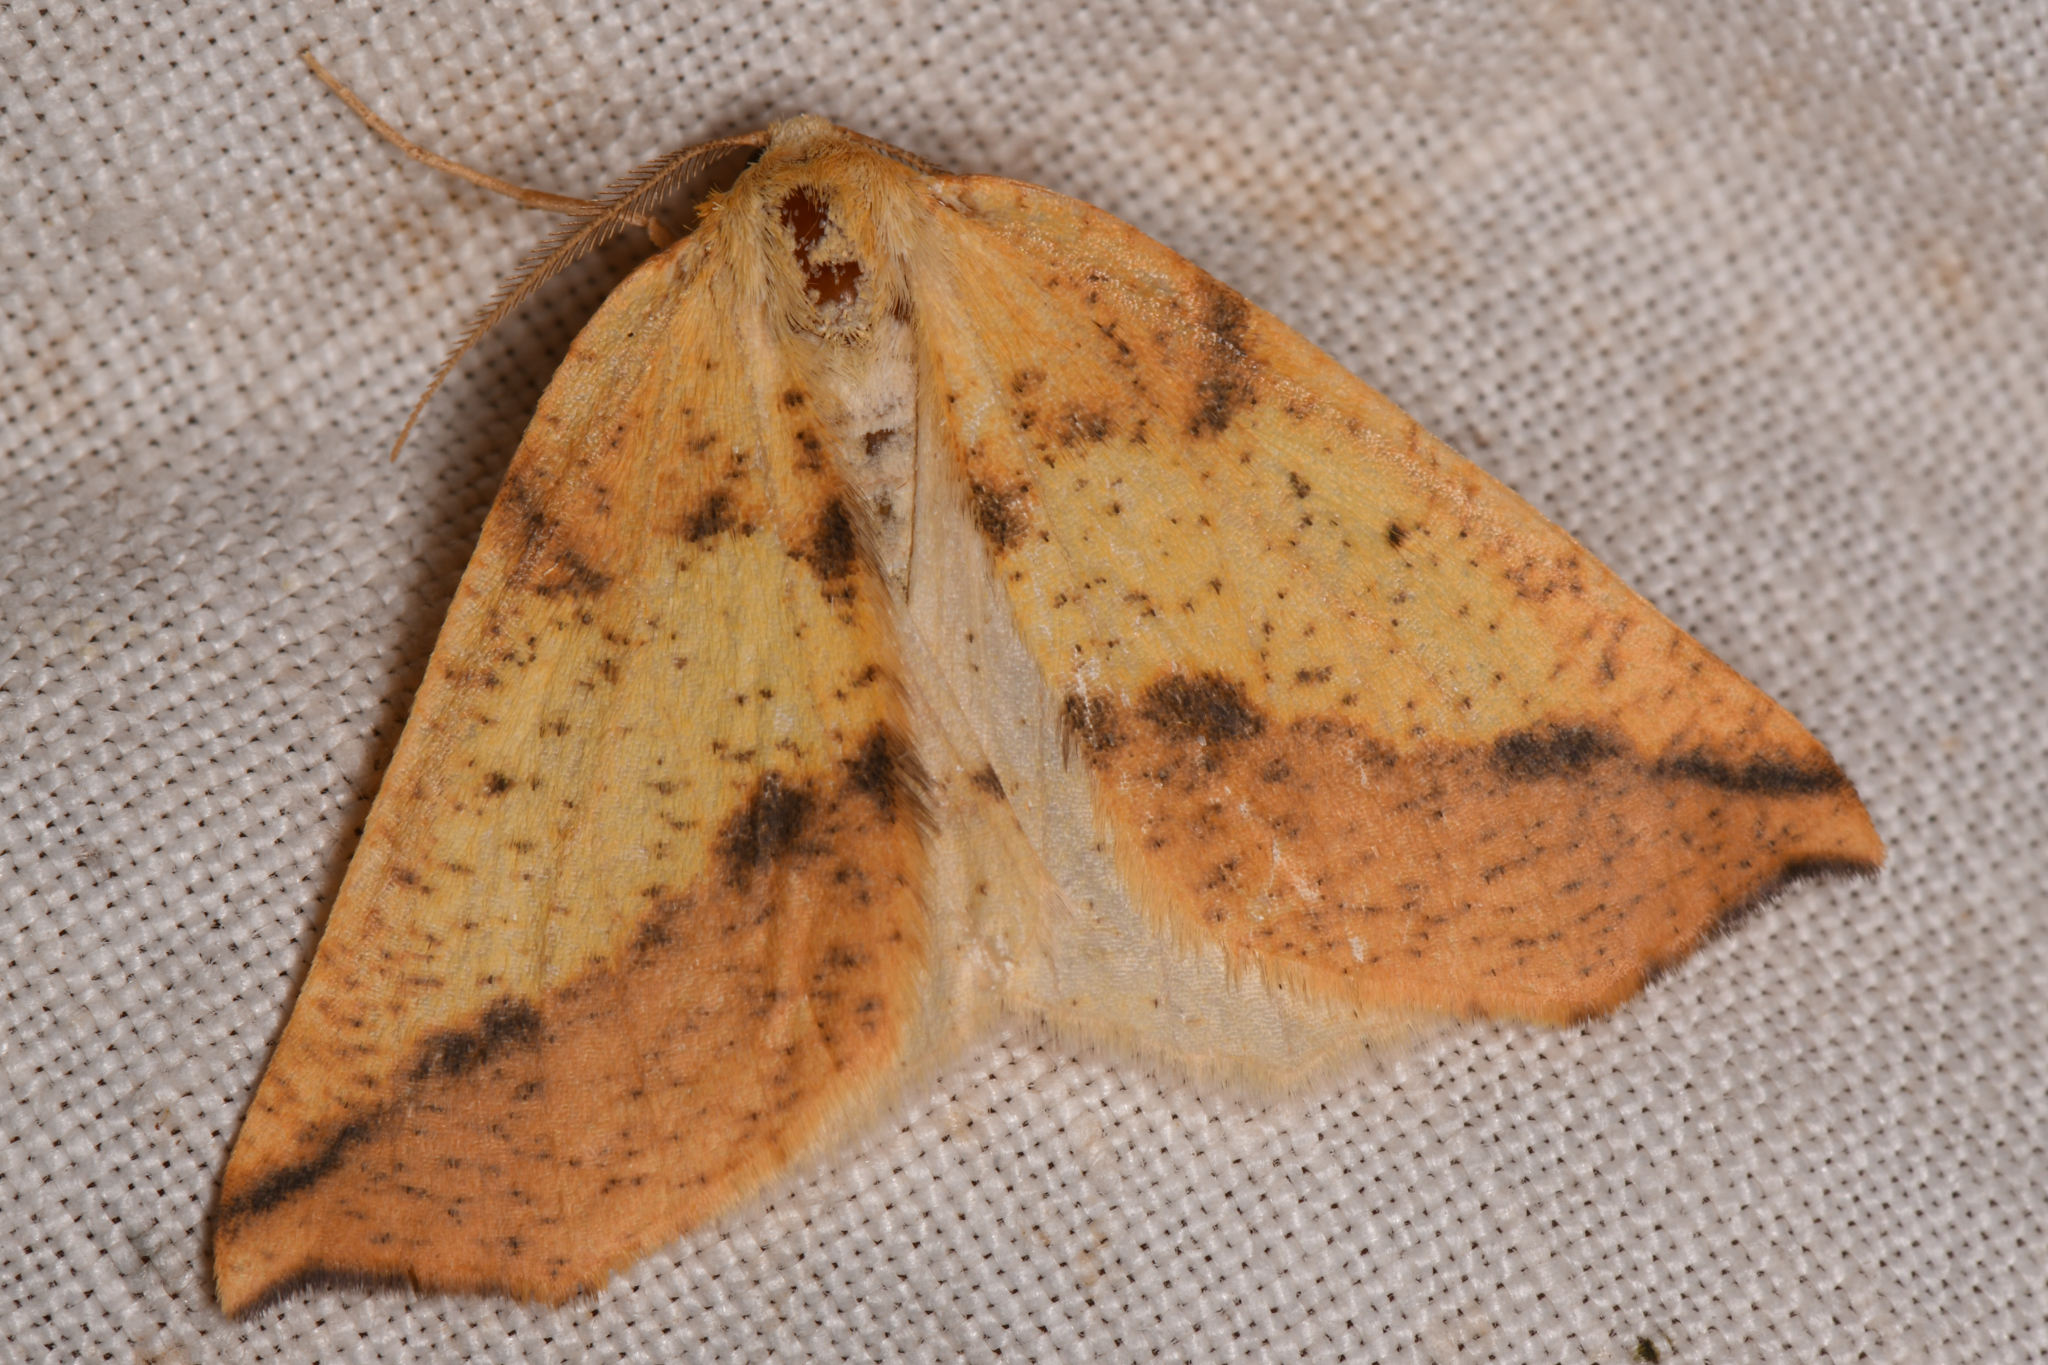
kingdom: Animalia
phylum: Arthropoda
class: Insecta
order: Lepidoptera
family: Geometridae
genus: Neoterpes
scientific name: Neoterpes edwardsata
